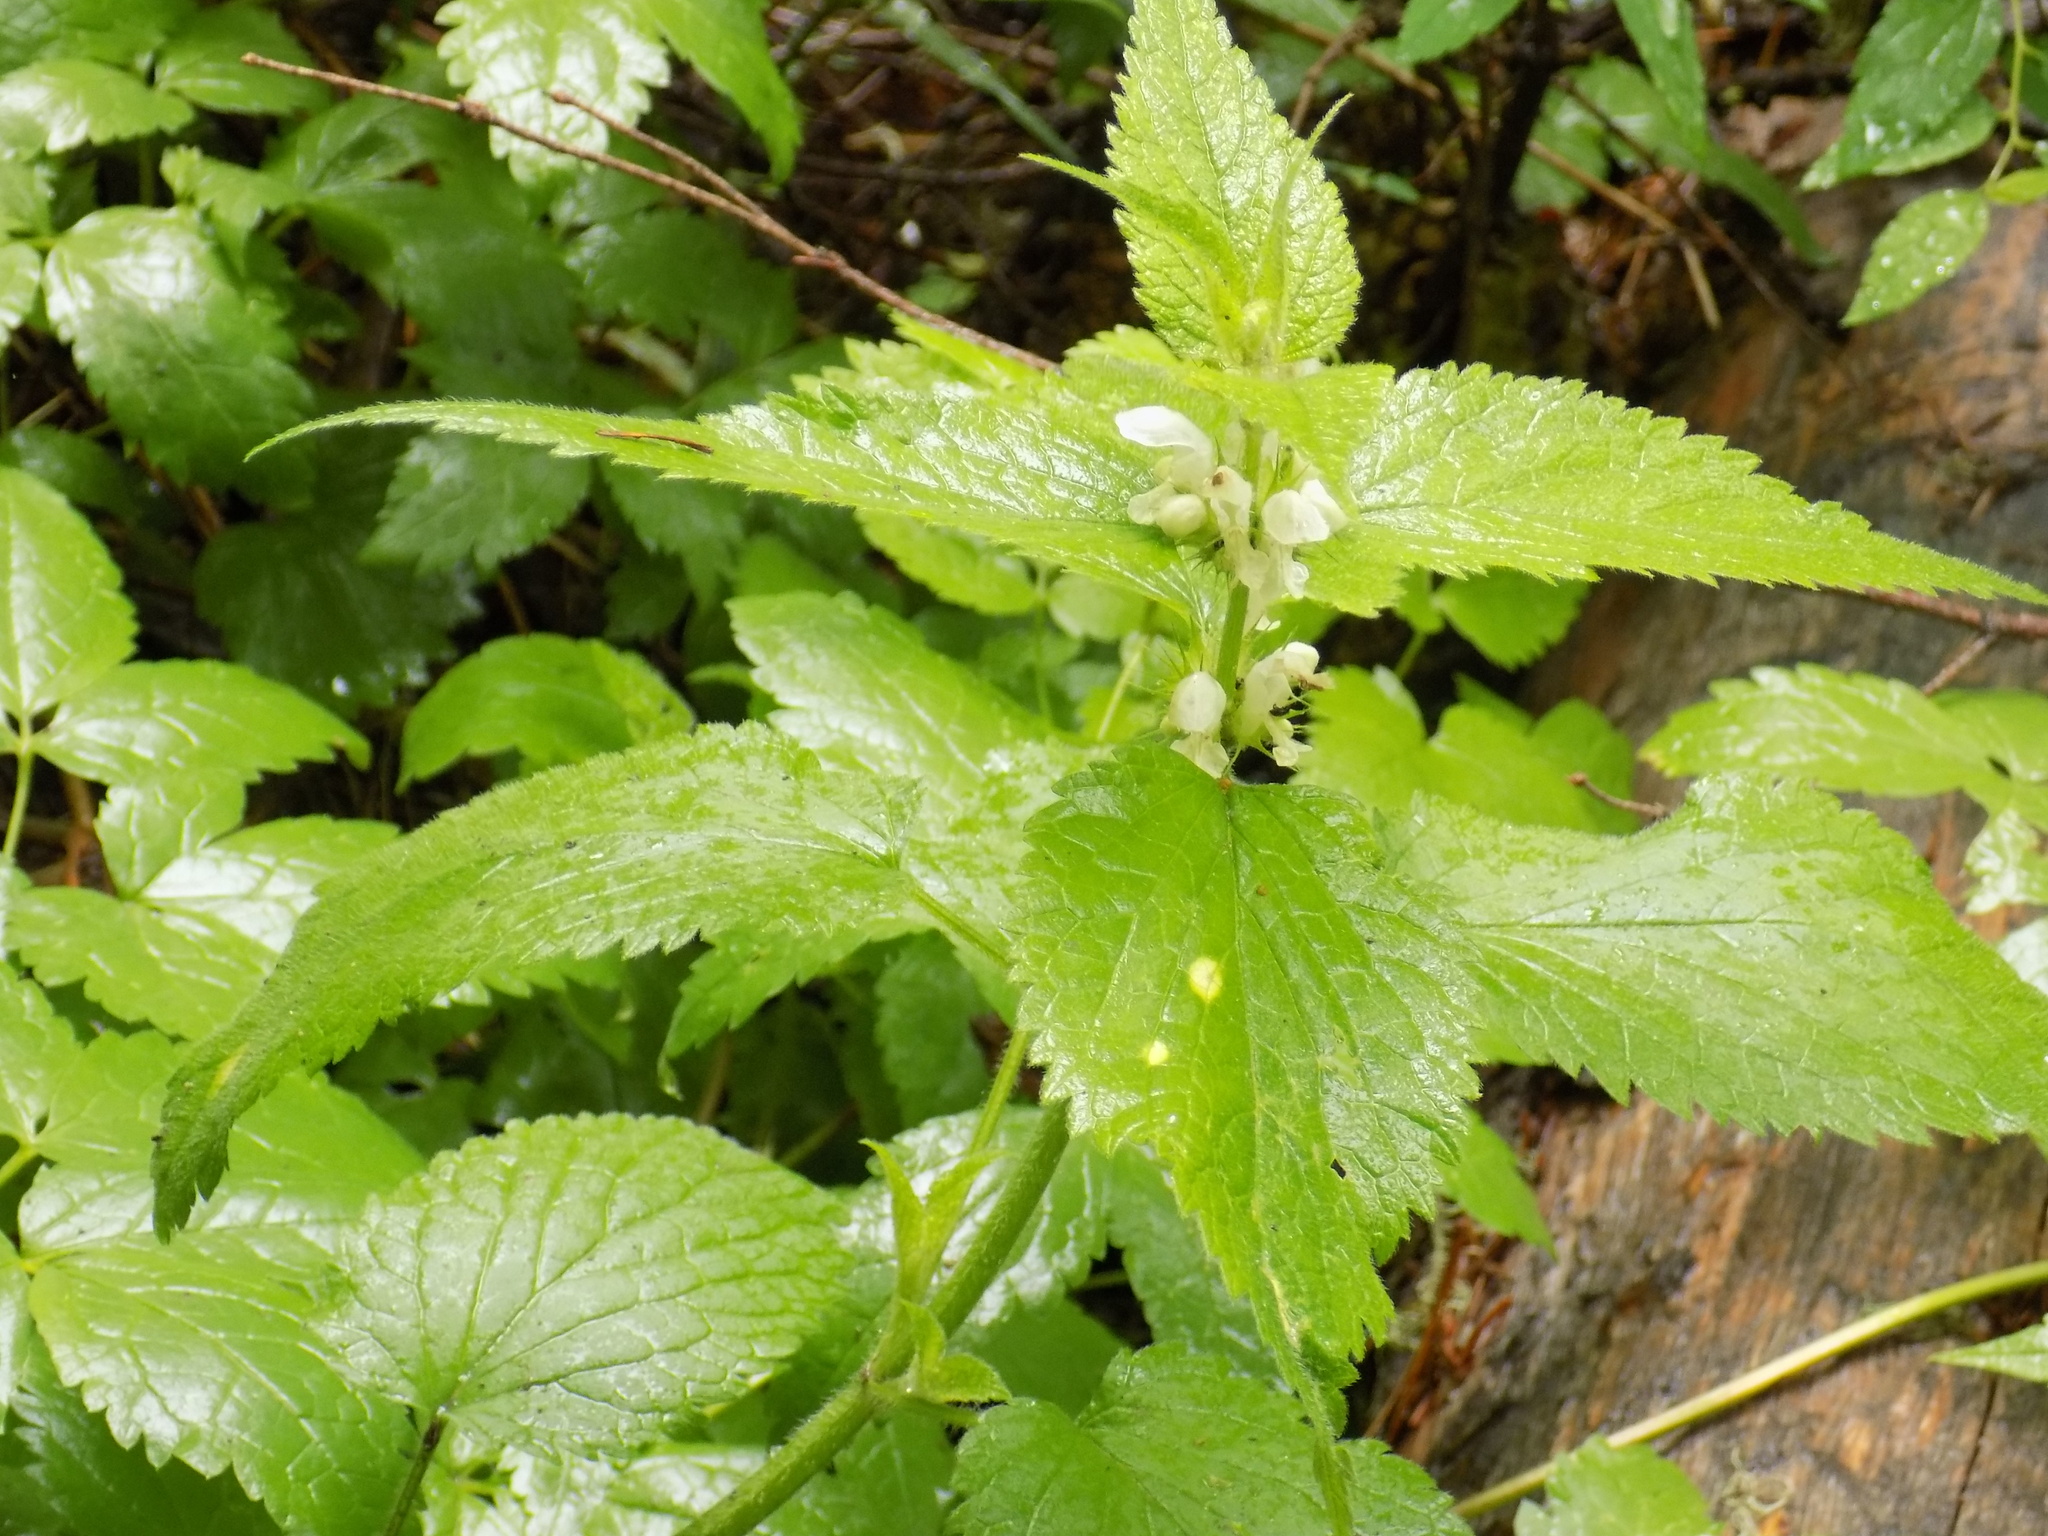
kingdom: Plantae
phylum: Tracheophyta
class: Magnoliopsida
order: Lamiales
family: Lamiaceae
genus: Lamium
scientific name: Lamium album
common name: White dead-nettle
